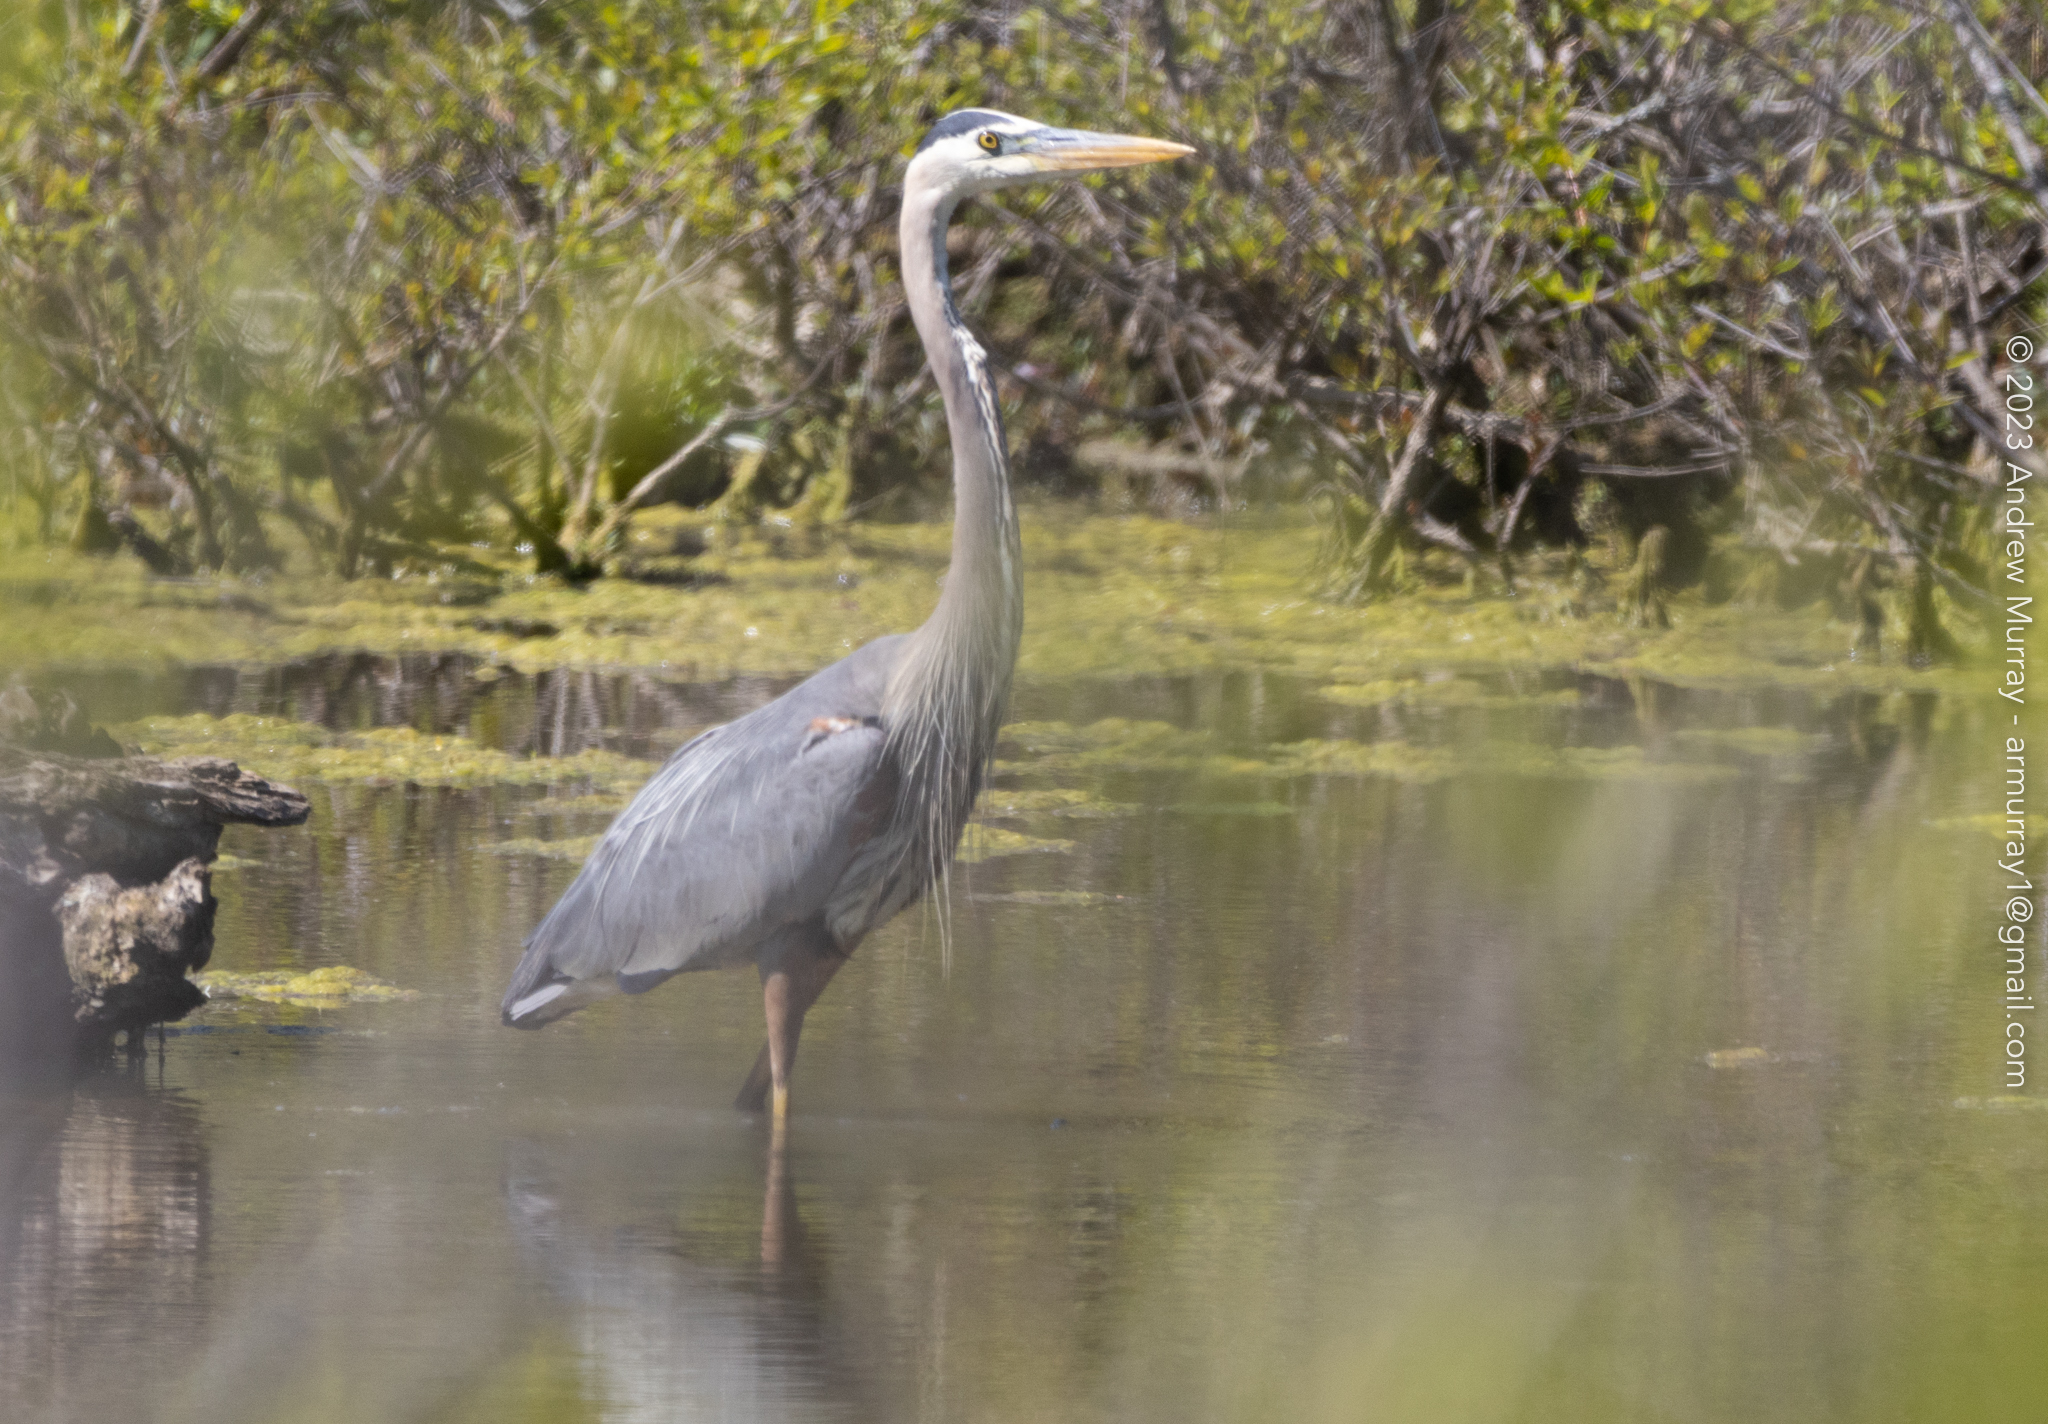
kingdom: Animalia
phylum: Chordata
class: Aves
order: Pelecaniformes
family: Ardeidae
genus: Ardea
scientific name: Ardea herodias
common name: Great blue heron
